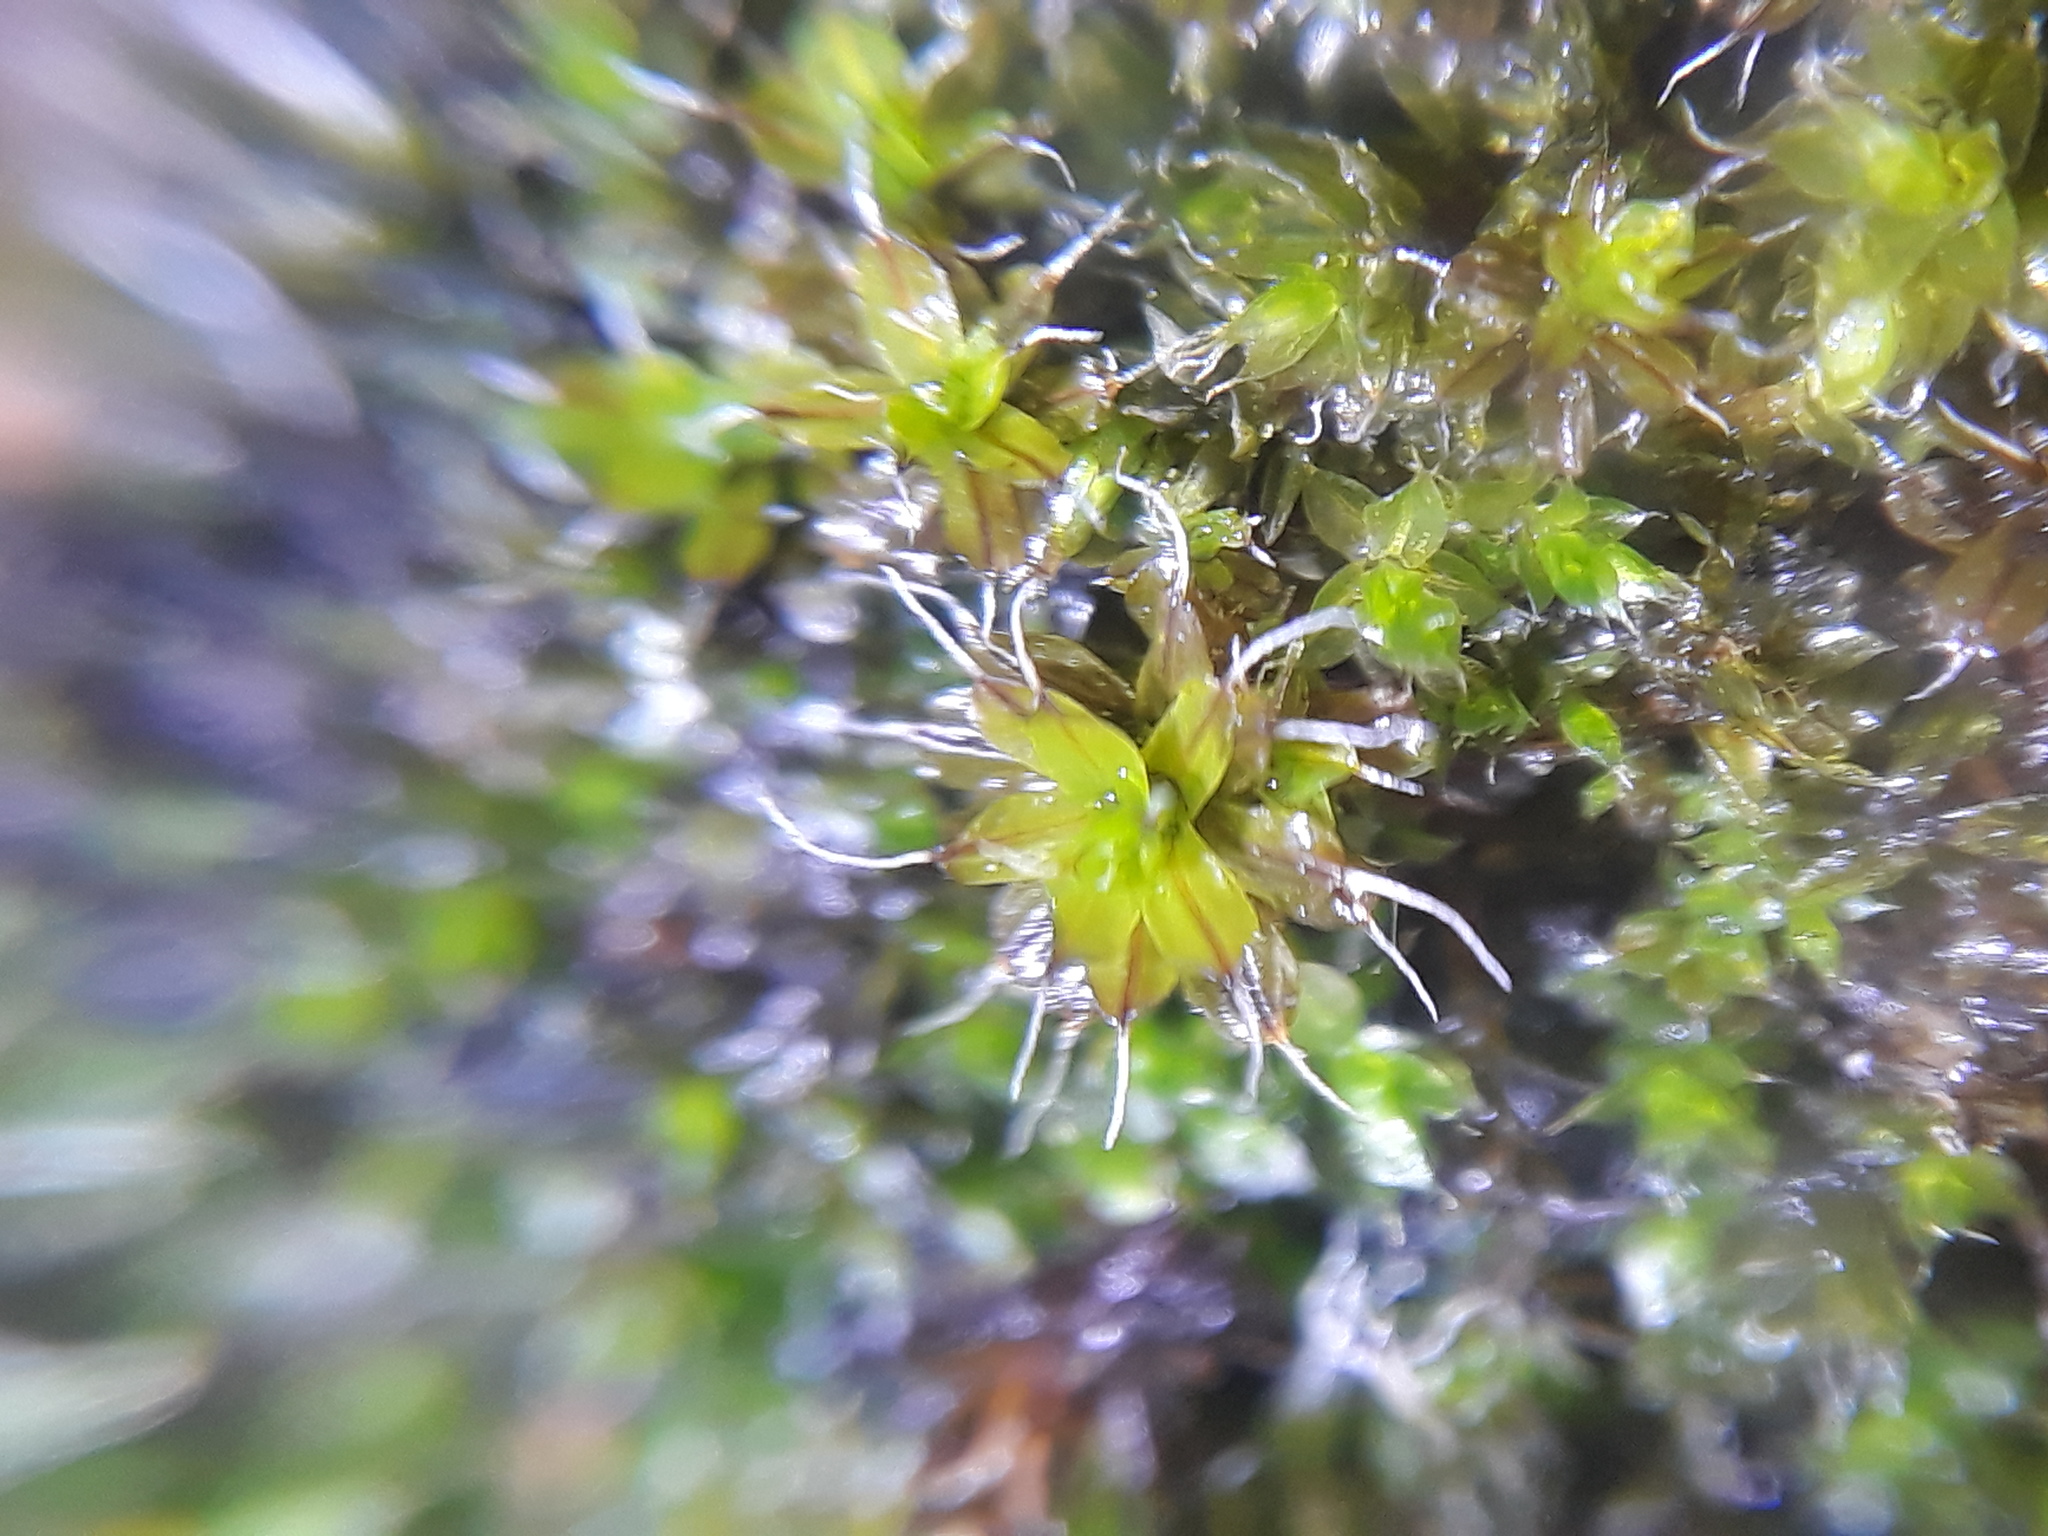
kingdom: Plantae
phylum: Bryophyta
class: Bryopsida
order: Pottiales
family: Pottiaceae
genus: Tortula
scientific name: Tortula muralis
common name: Wall screw-moss
